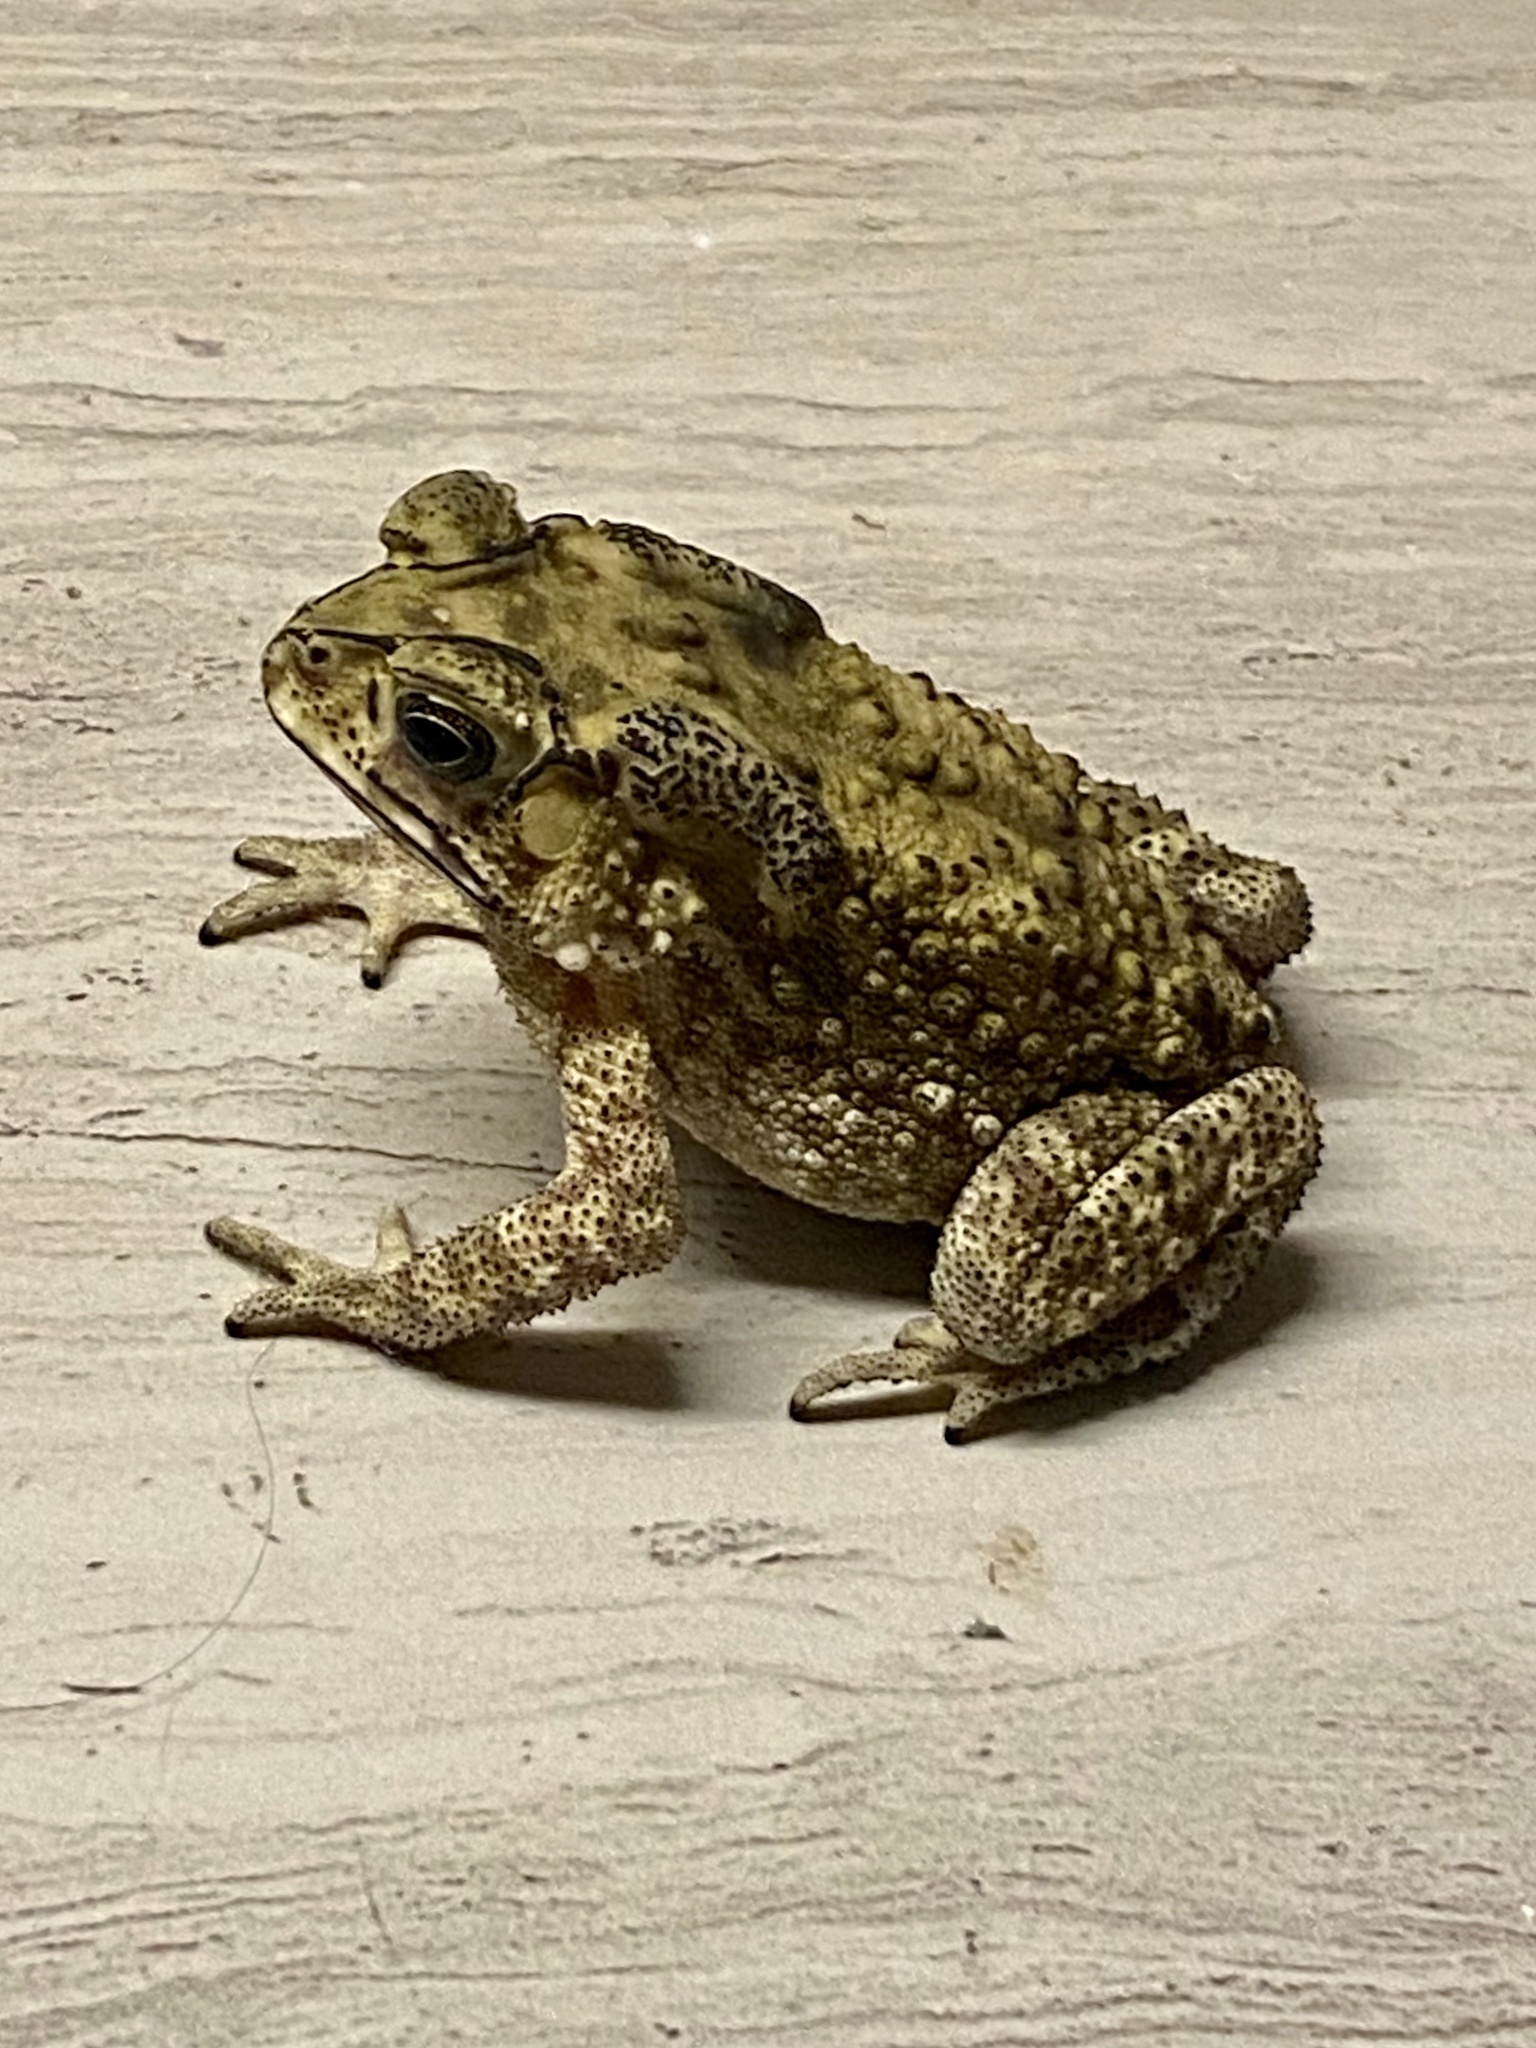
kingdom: Animalia
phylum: Chordata
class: Amphibia
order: Anura
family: Bufonidae
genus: Duttaphrynus
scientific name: Duttaphrynus melanostictus
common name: Common sunda toad
